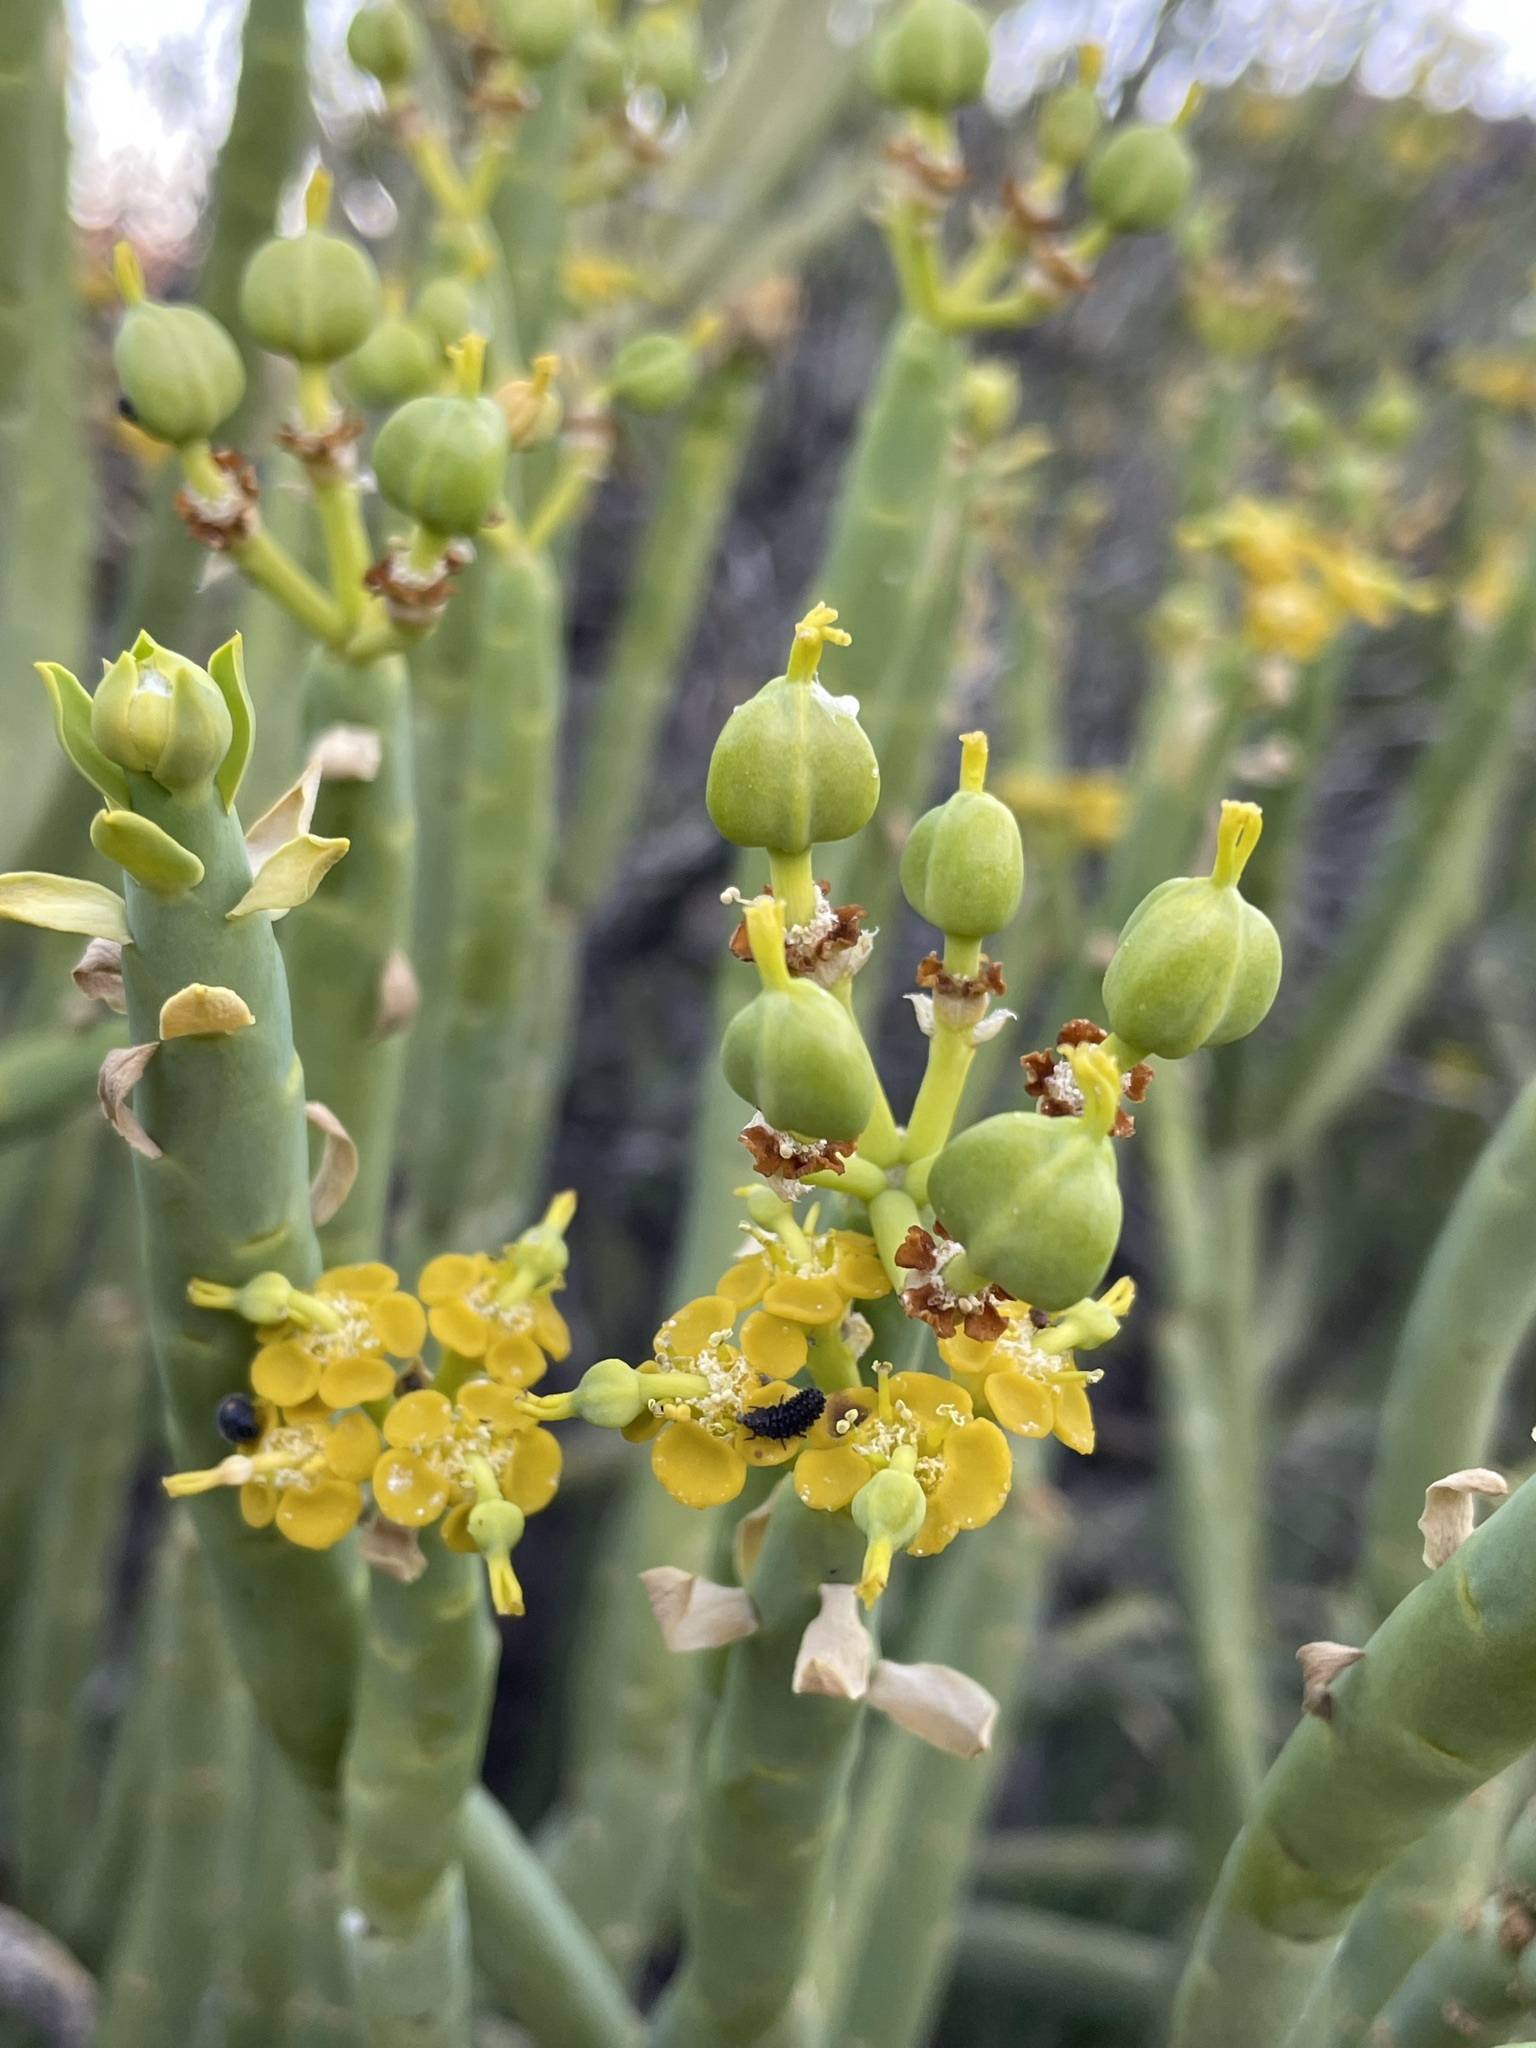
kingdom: Plantae
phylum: Tracheophyta
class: Magnoliopsida
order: Malpighiales
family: Euphorbiaceae
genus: Euphorbia
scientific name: Euphorbia mauritanica
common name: Jackal's-food
